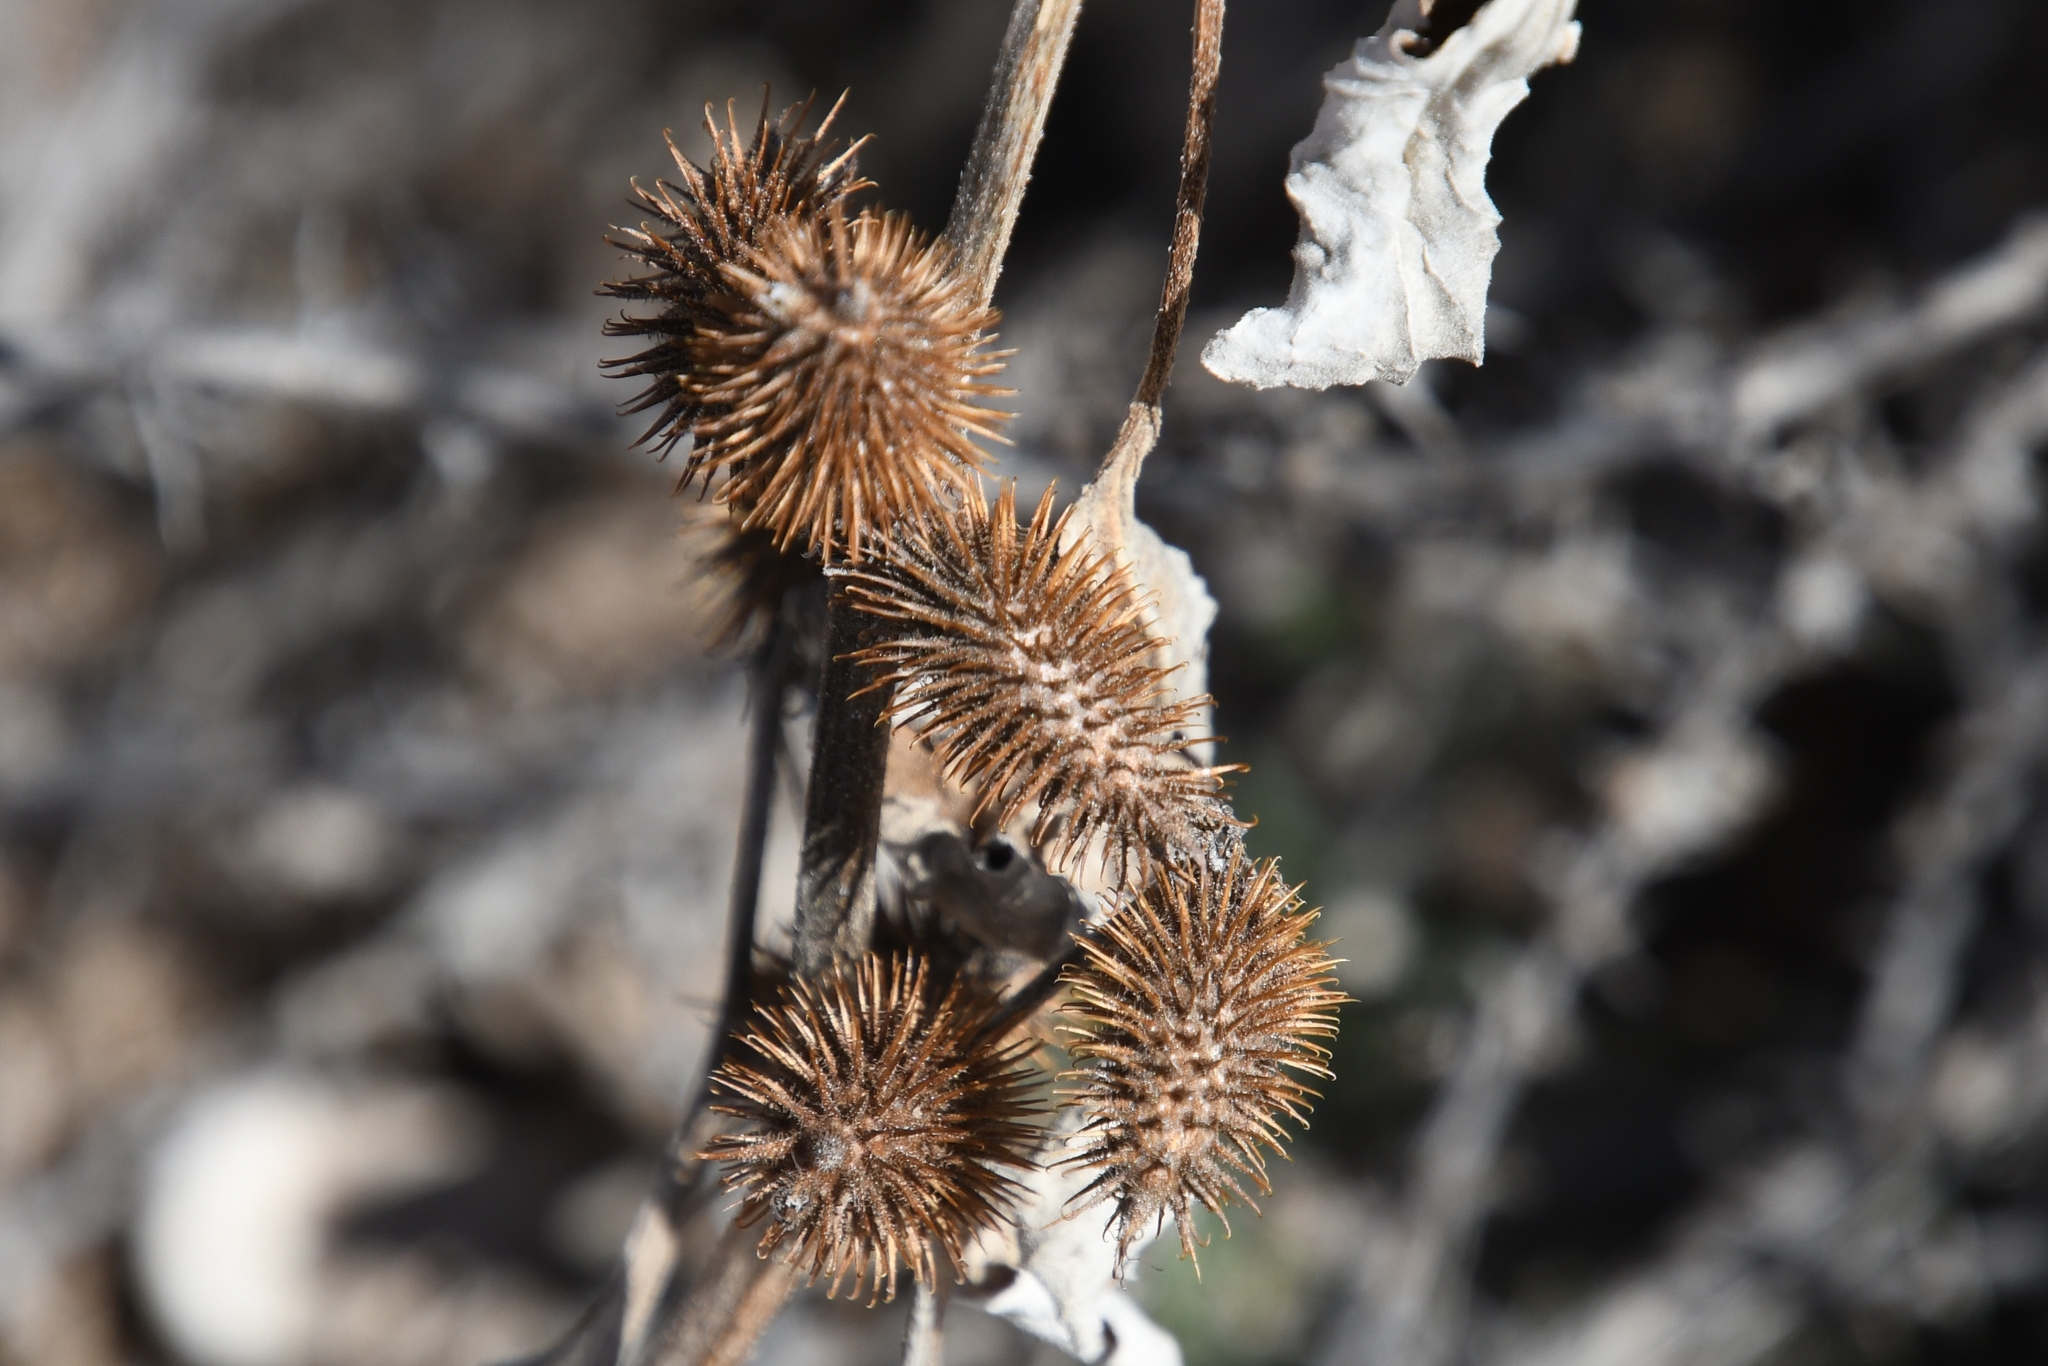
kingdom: Plantae
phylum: Tracheophyta
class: Magnoliopsida
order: Asterales
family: Asteraceae
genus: Xanthium
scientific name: Xanthium strumarium
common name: Rough cocklebur
